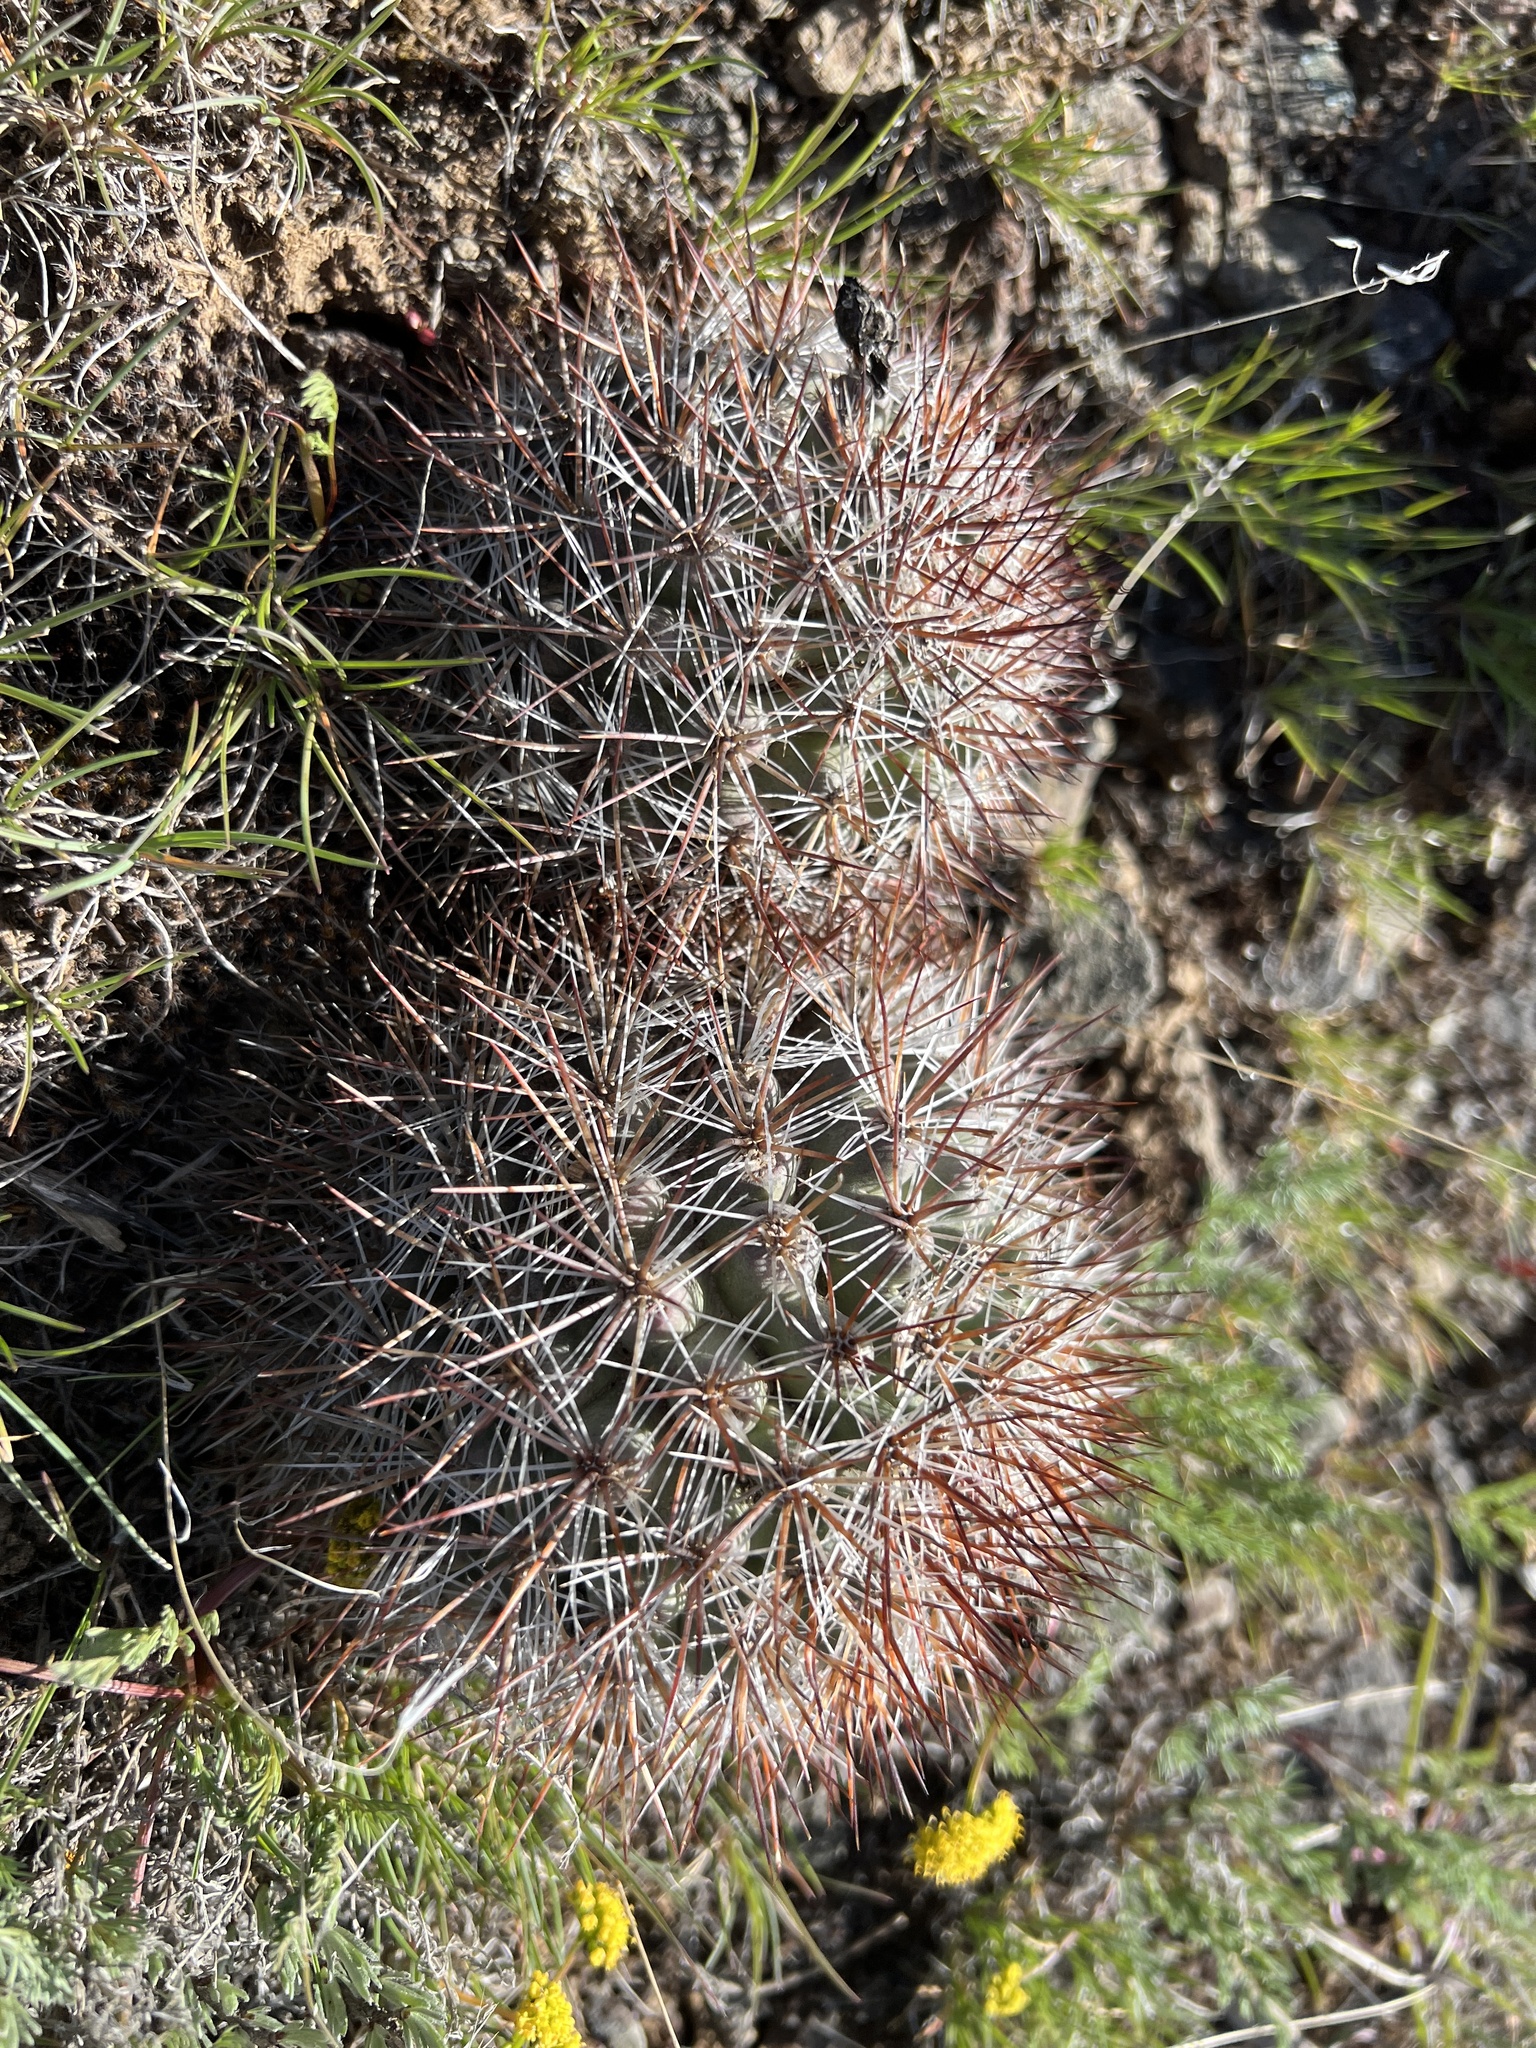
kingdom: Plantae
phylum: Tracheophyta
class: Magnoliopsida
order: Caryophyllales
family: Cactaceae
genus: Pediocactus
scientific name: Pediocactus nigrispinus
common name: Simpson's hedgehog cactus
